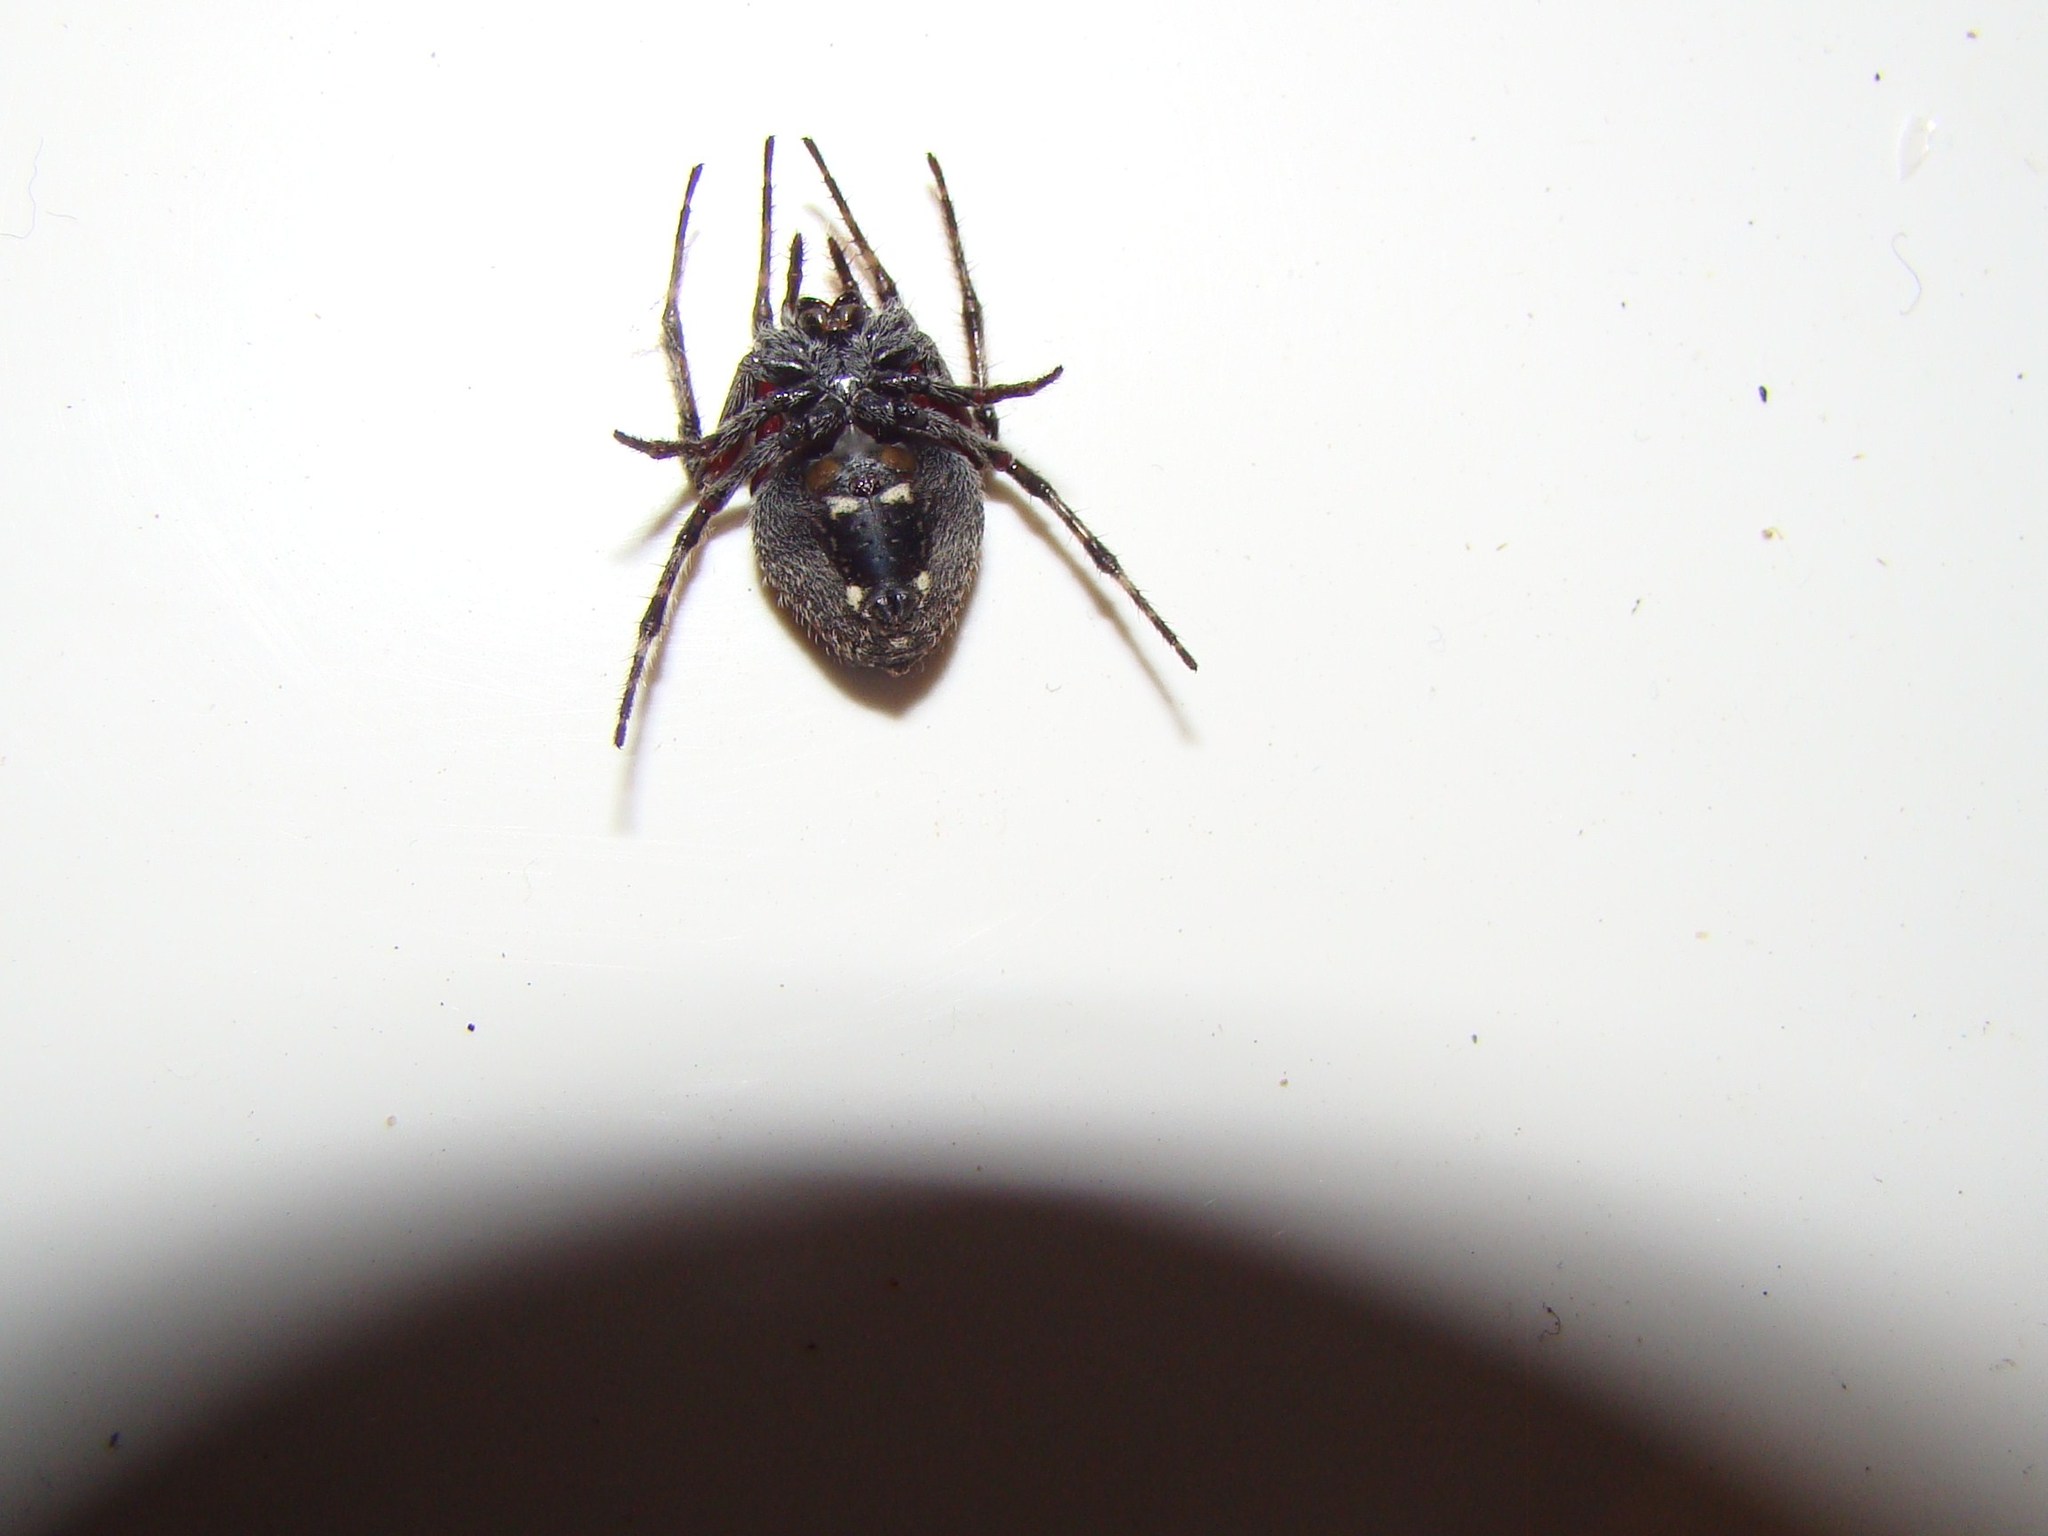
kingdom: Animalia
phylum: Arthropoda
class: Arachnida
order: Araneae
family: Araneidae
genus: Eriophora
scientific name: Eriophora pustulosa
